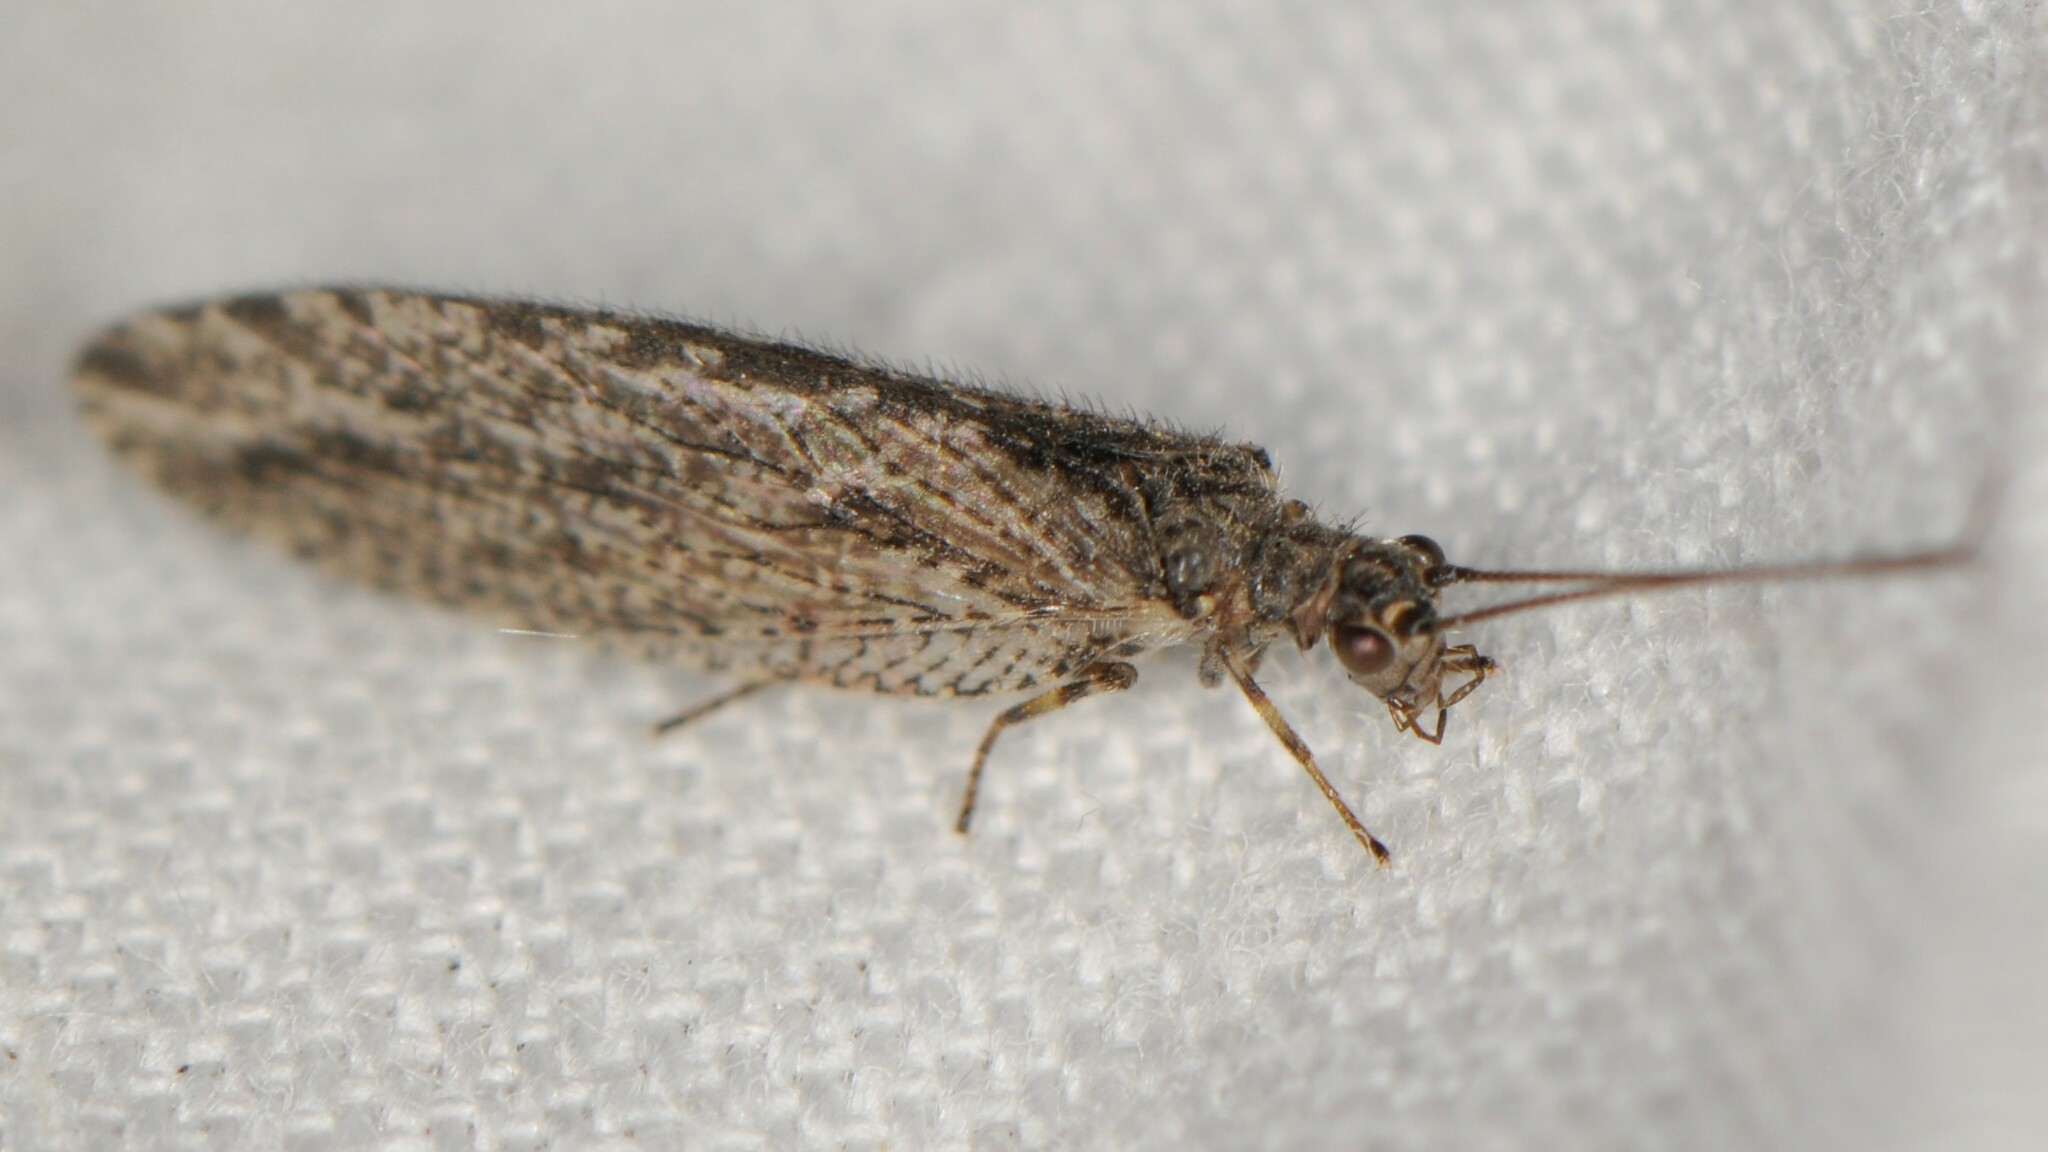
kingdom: Animalia
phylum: Arthropoda
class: Insecta
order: Neuroptera
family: Hemerobiidae
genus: Micromus
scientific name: Micromus variolosus
